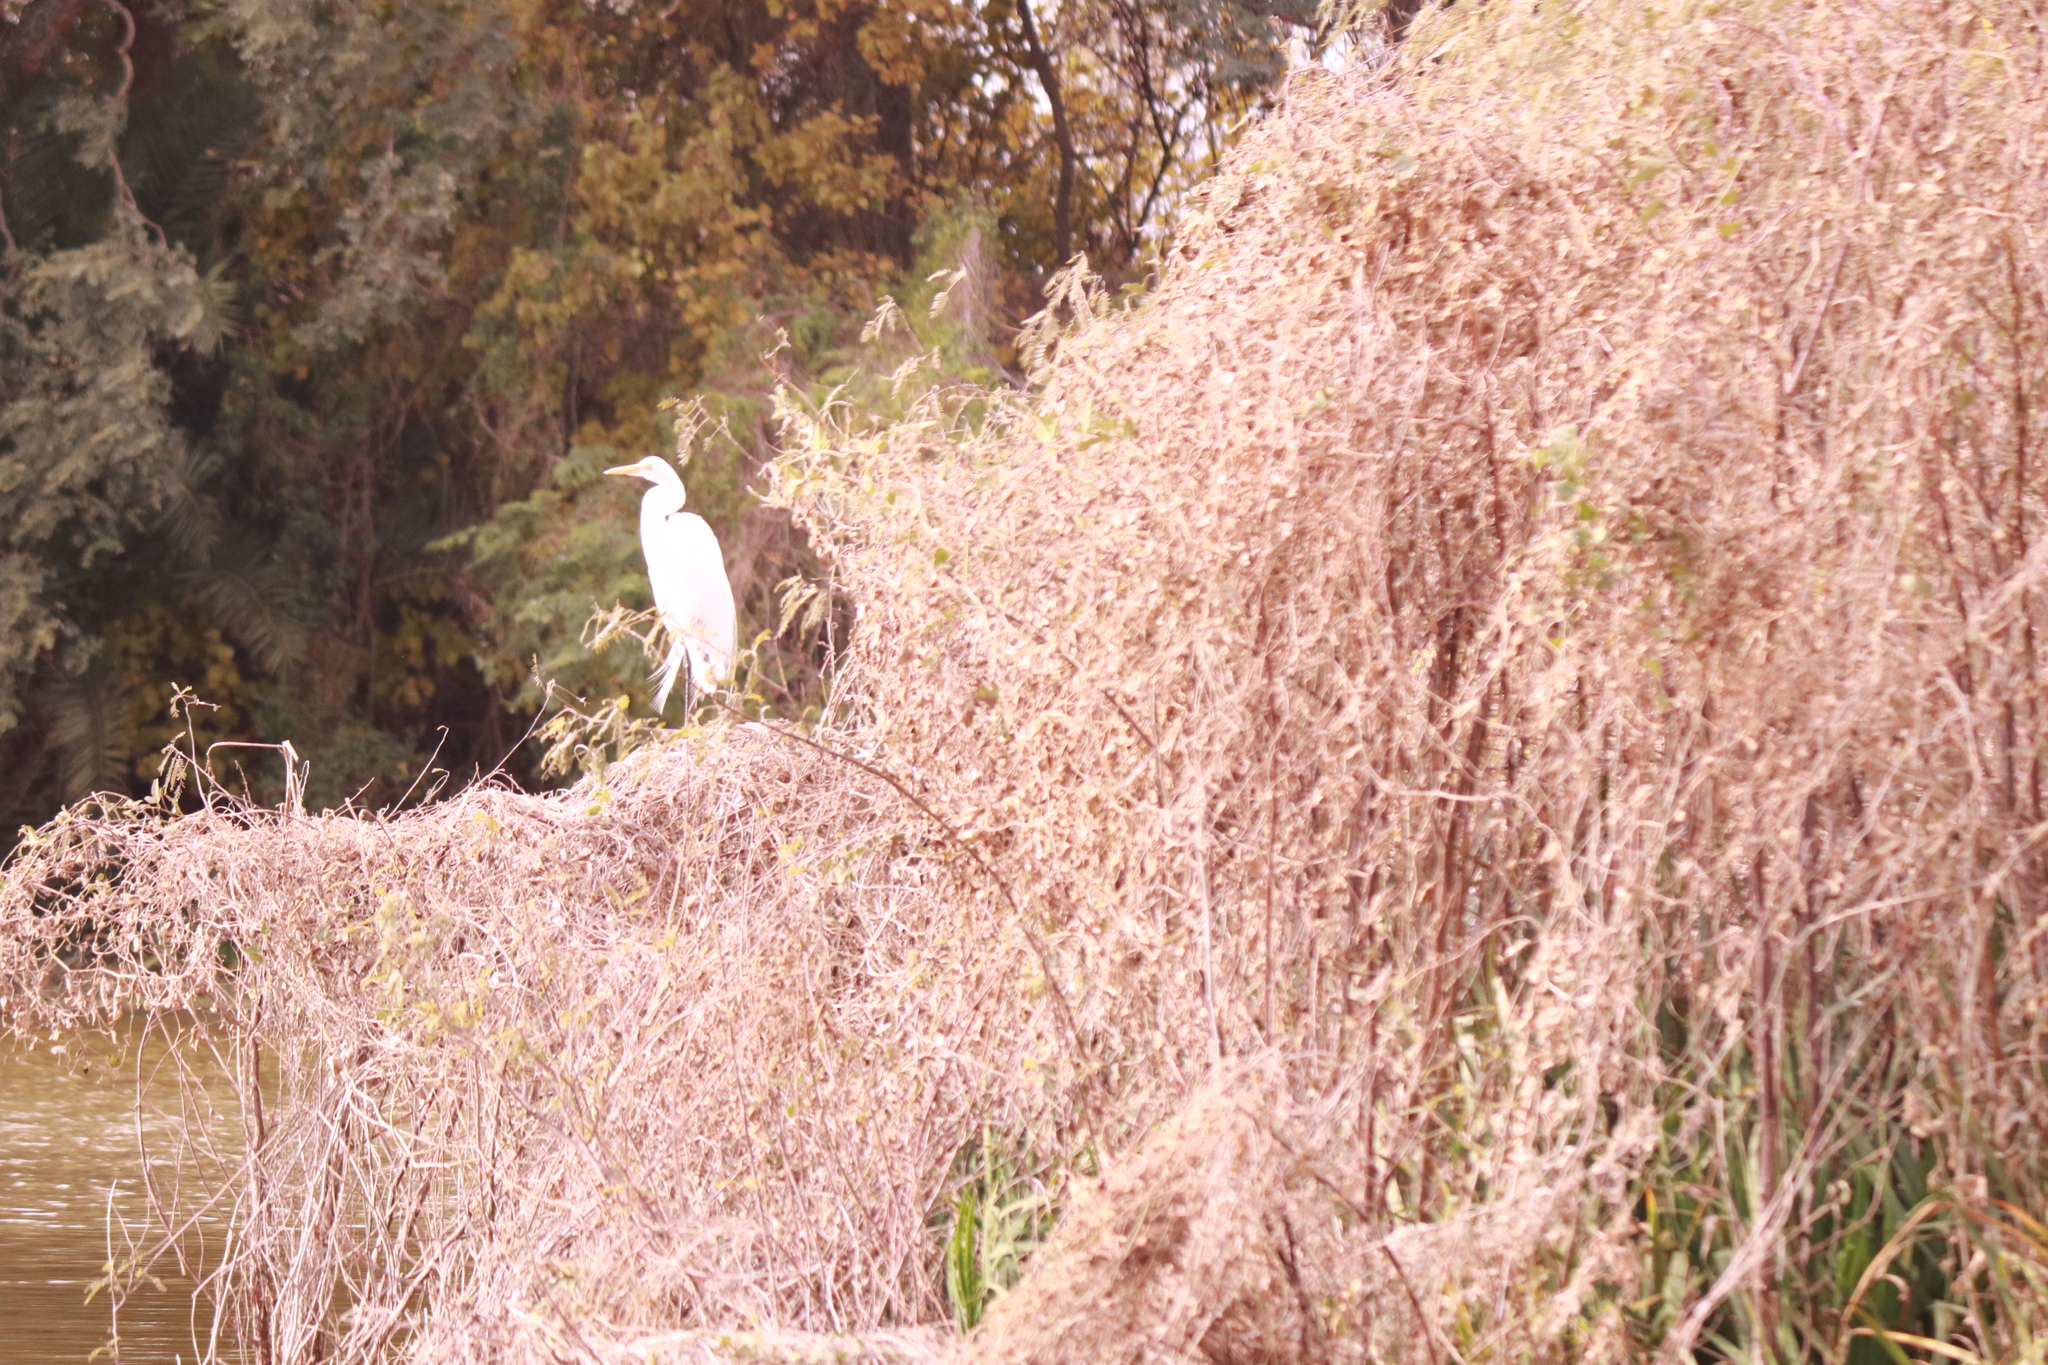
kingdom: Animalia
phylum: Chordata
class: Aves
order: Pelecaniformes
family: Ardeidae
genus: Ardea
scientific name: Ardea alba
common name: Great egret
